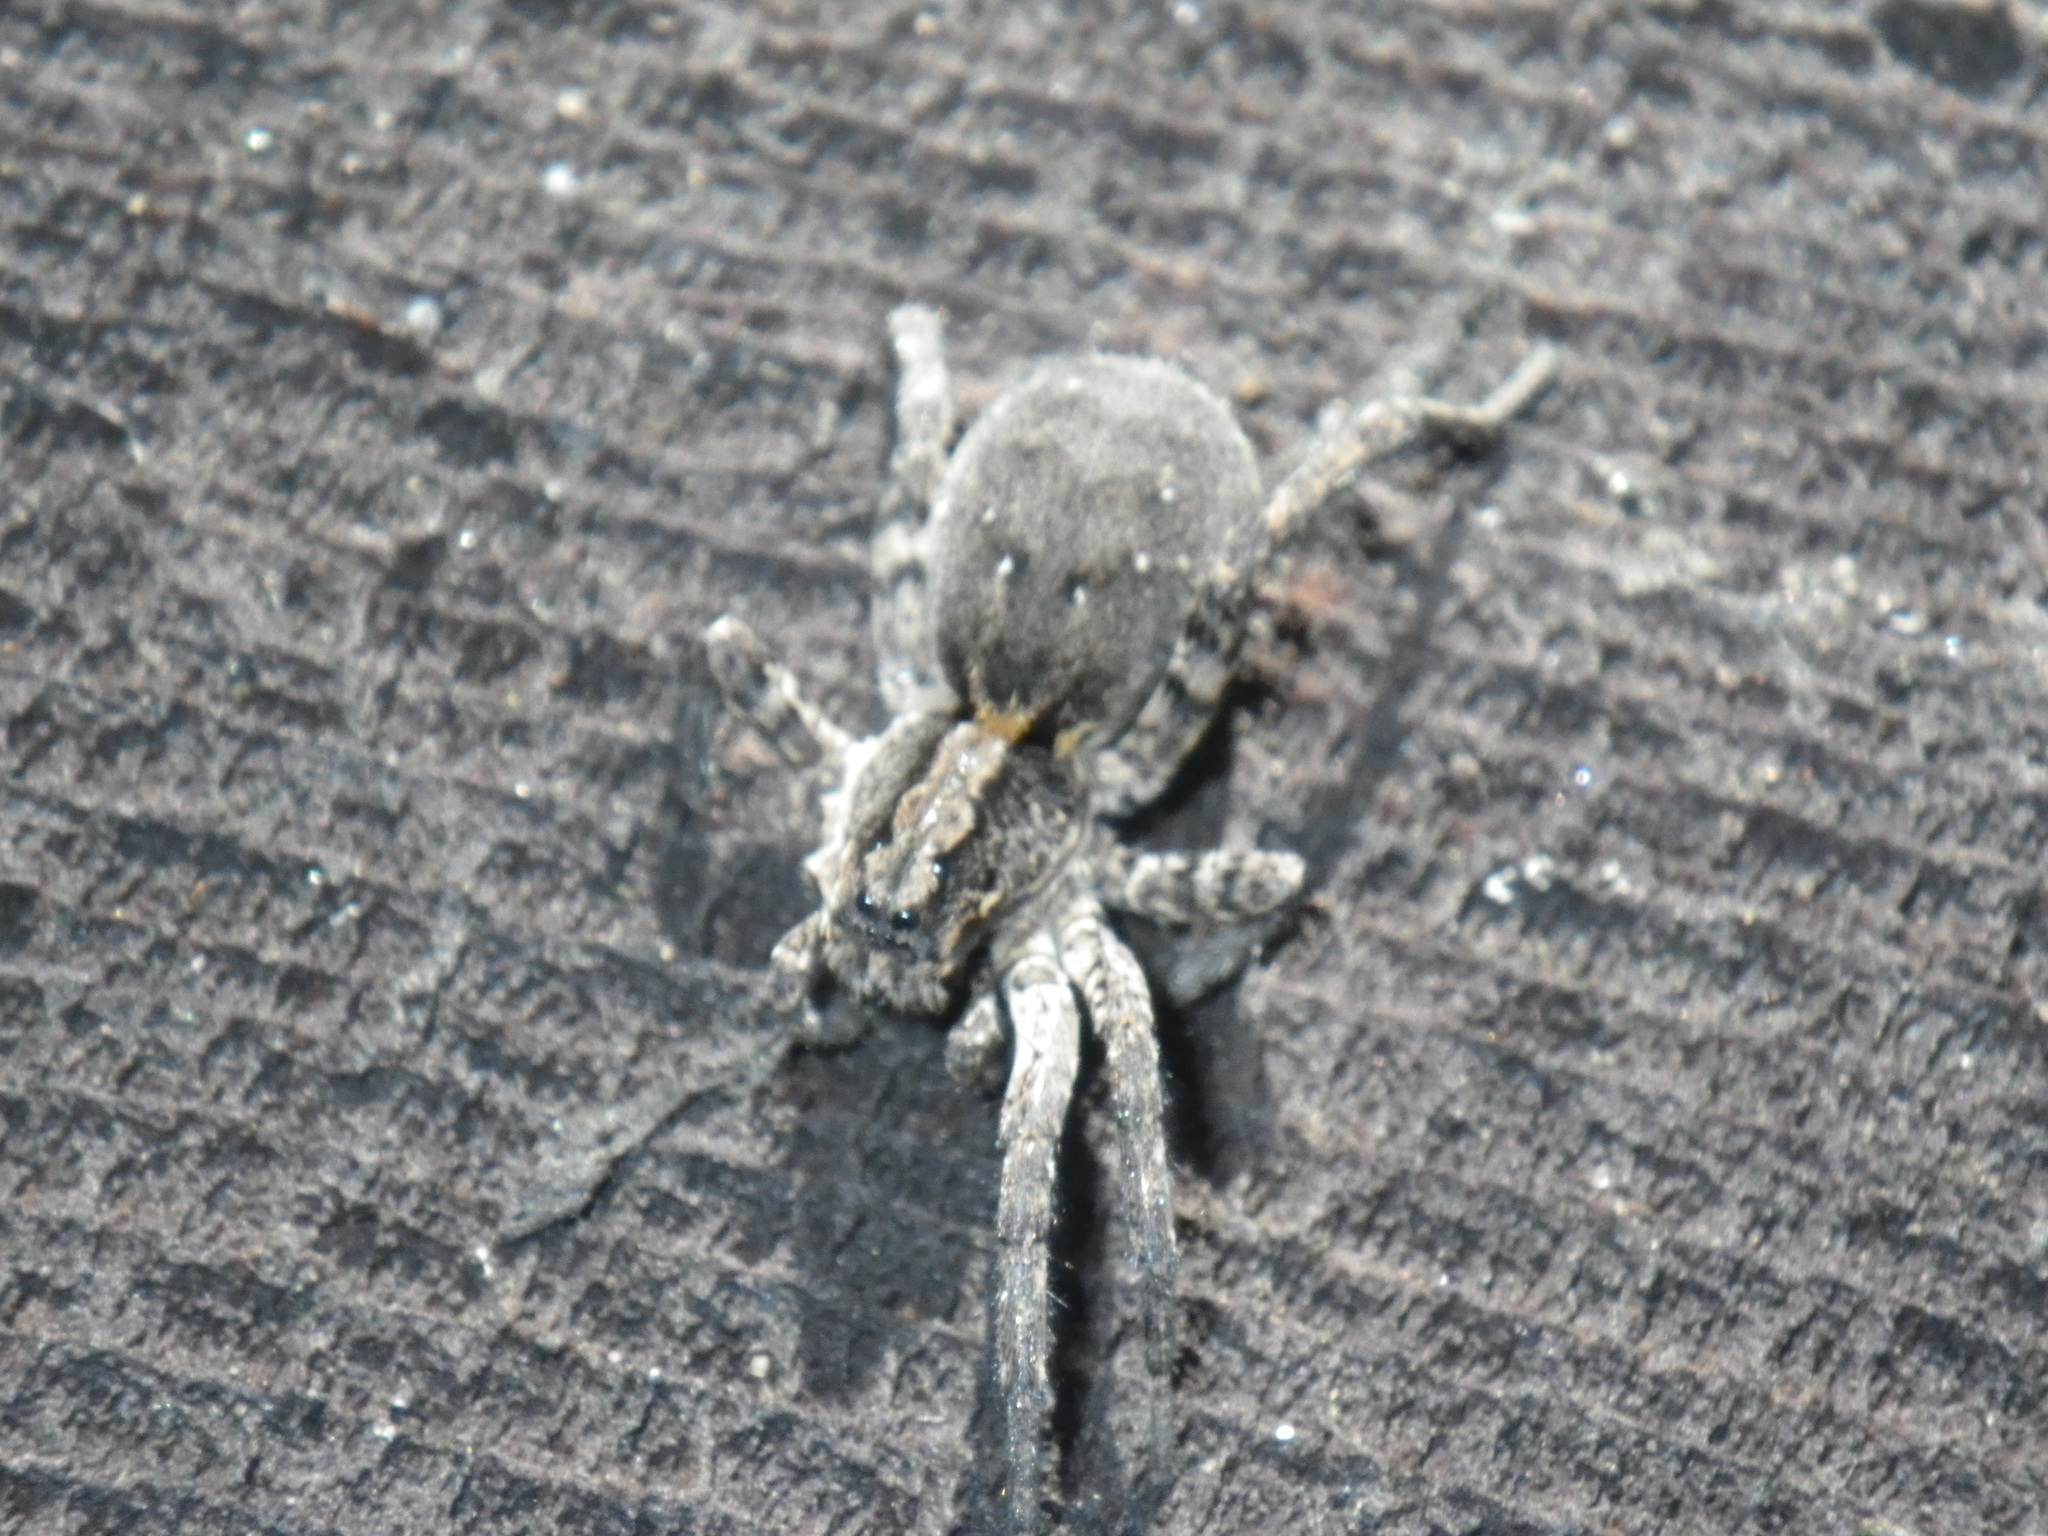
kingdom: Animalia
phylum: Arthropoda
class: Arachnida
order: Araneae
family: Lycosidae
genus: Alopecosa
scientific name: Alopecosa kochi
